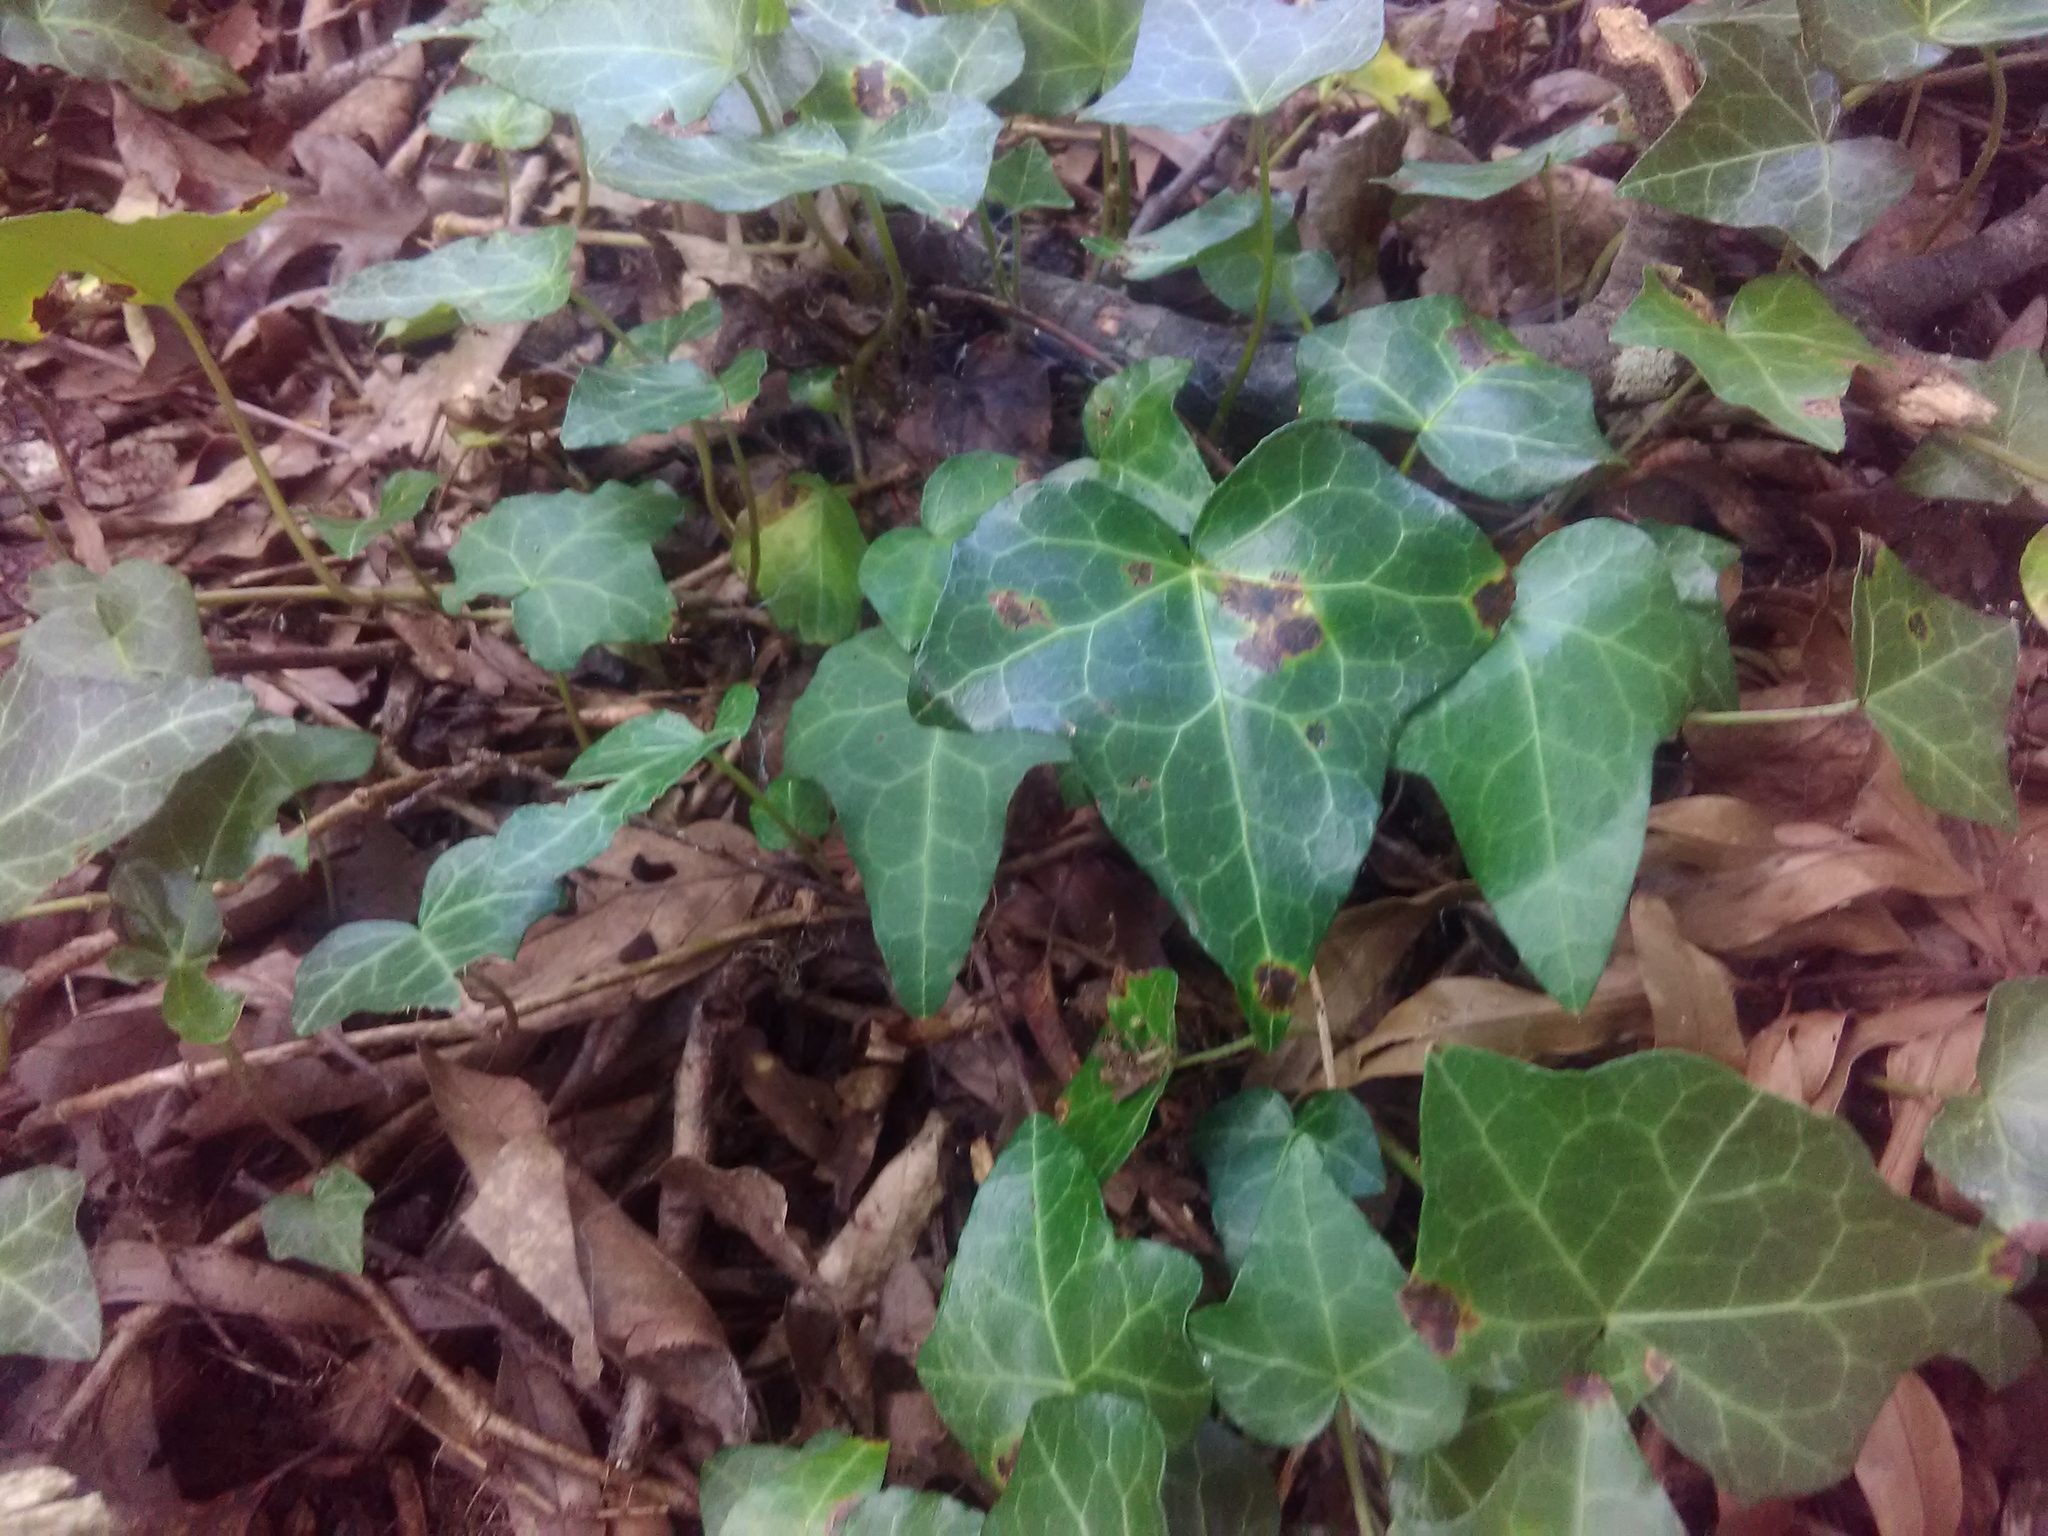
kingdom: Plantae
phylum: Tracheophyta
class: Magnoliopsida
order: Apiales
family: Araliaceae
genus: Hedera
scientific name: Hedera helix
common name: Ivy
